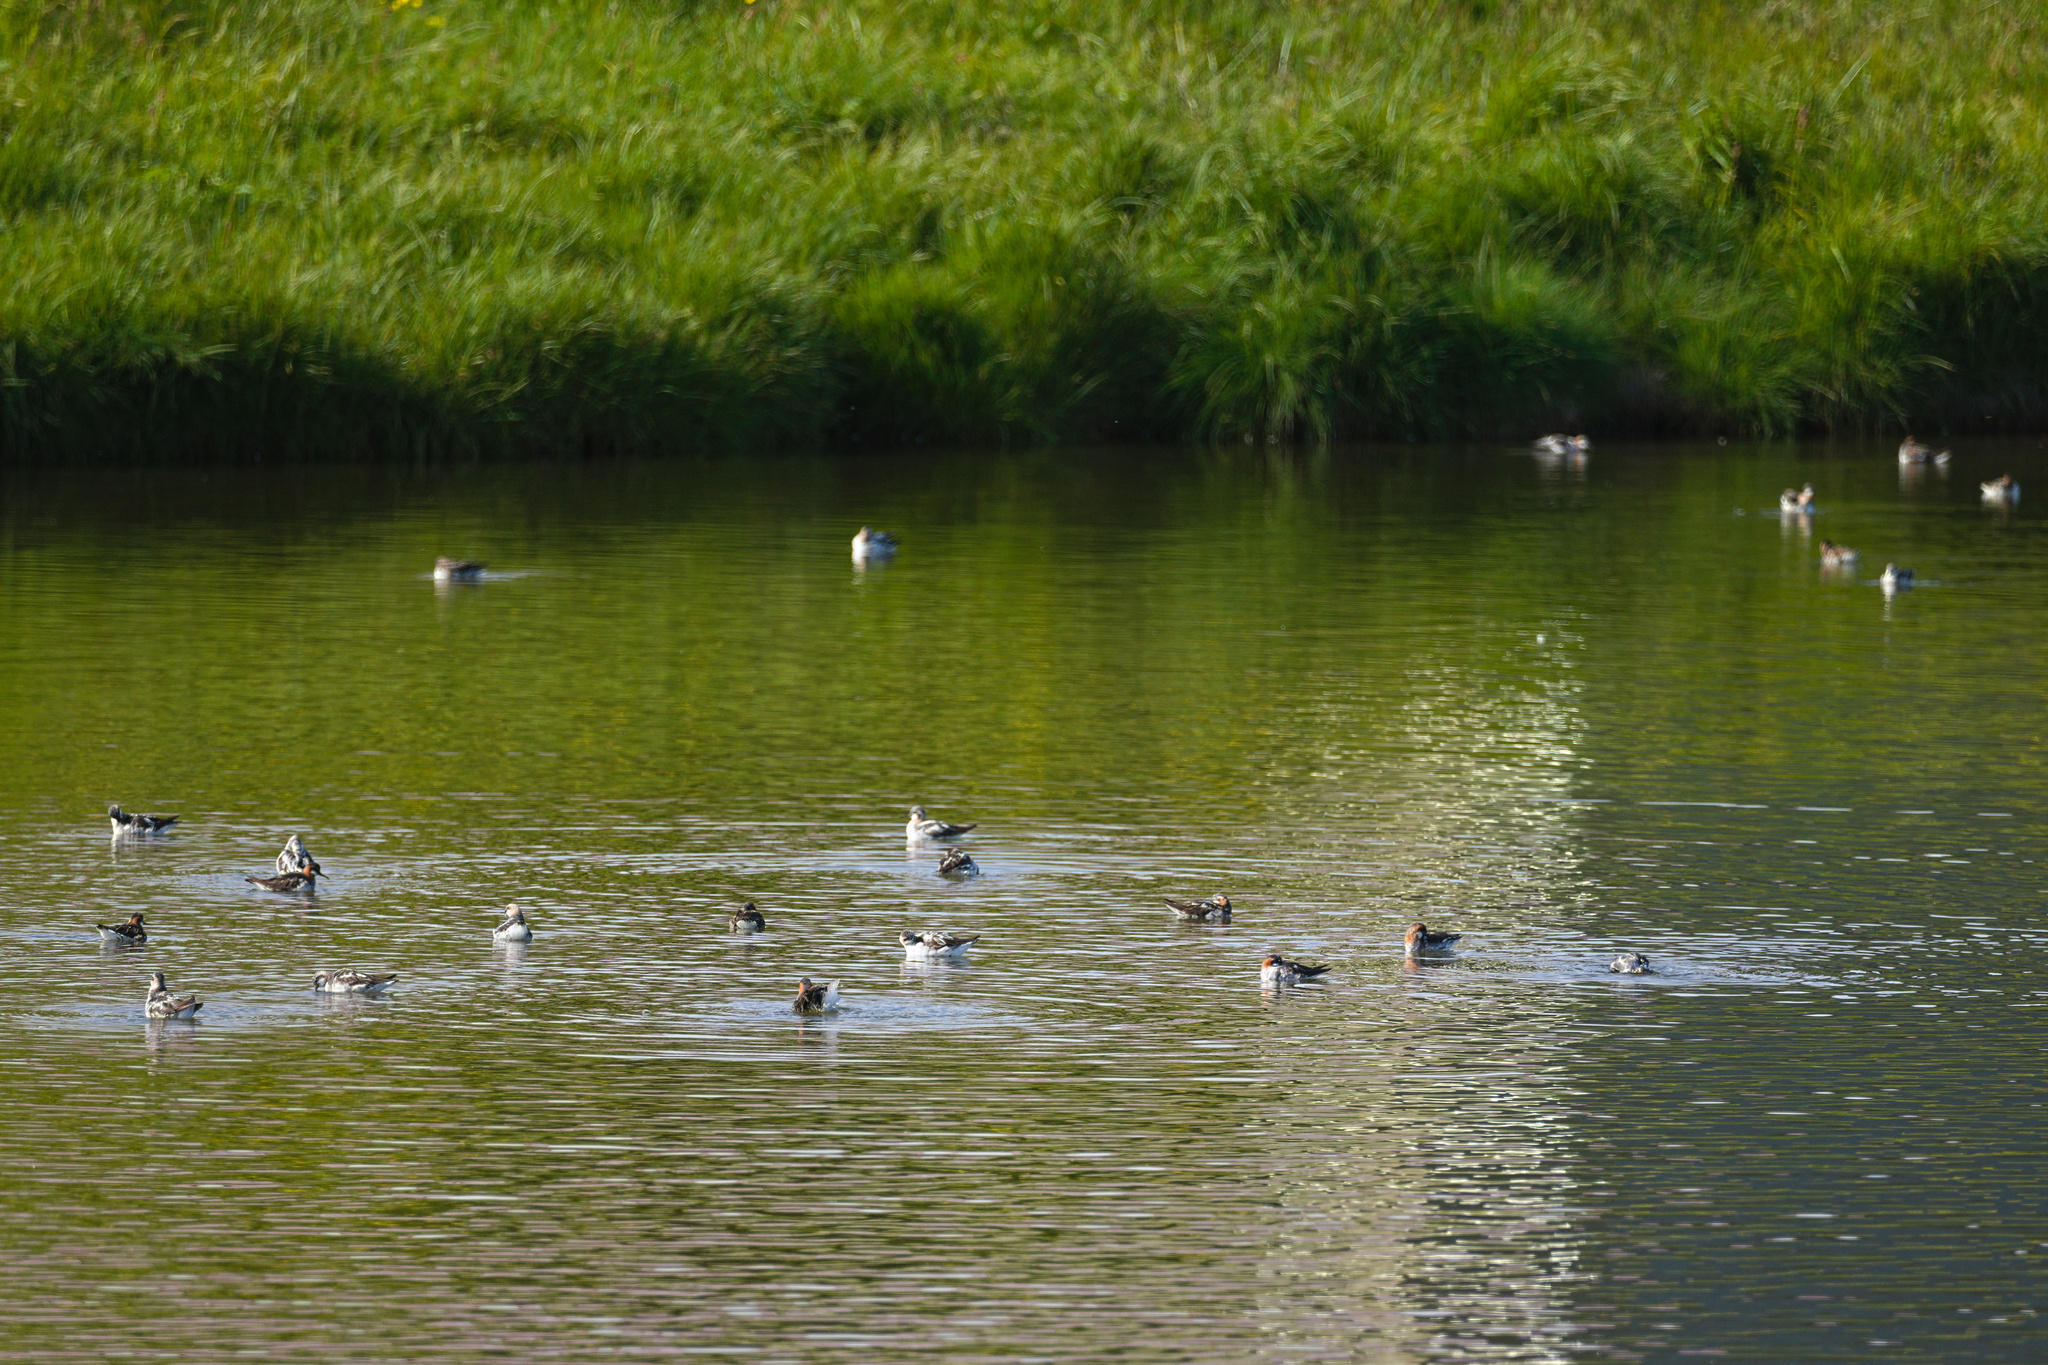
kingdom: Animalia
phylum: Chordata
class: Aves
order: Charadriiformes
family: Scolopacidae
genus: Phalaropus
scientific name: Phalaropus lobatus
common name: Red-necked phalarope
